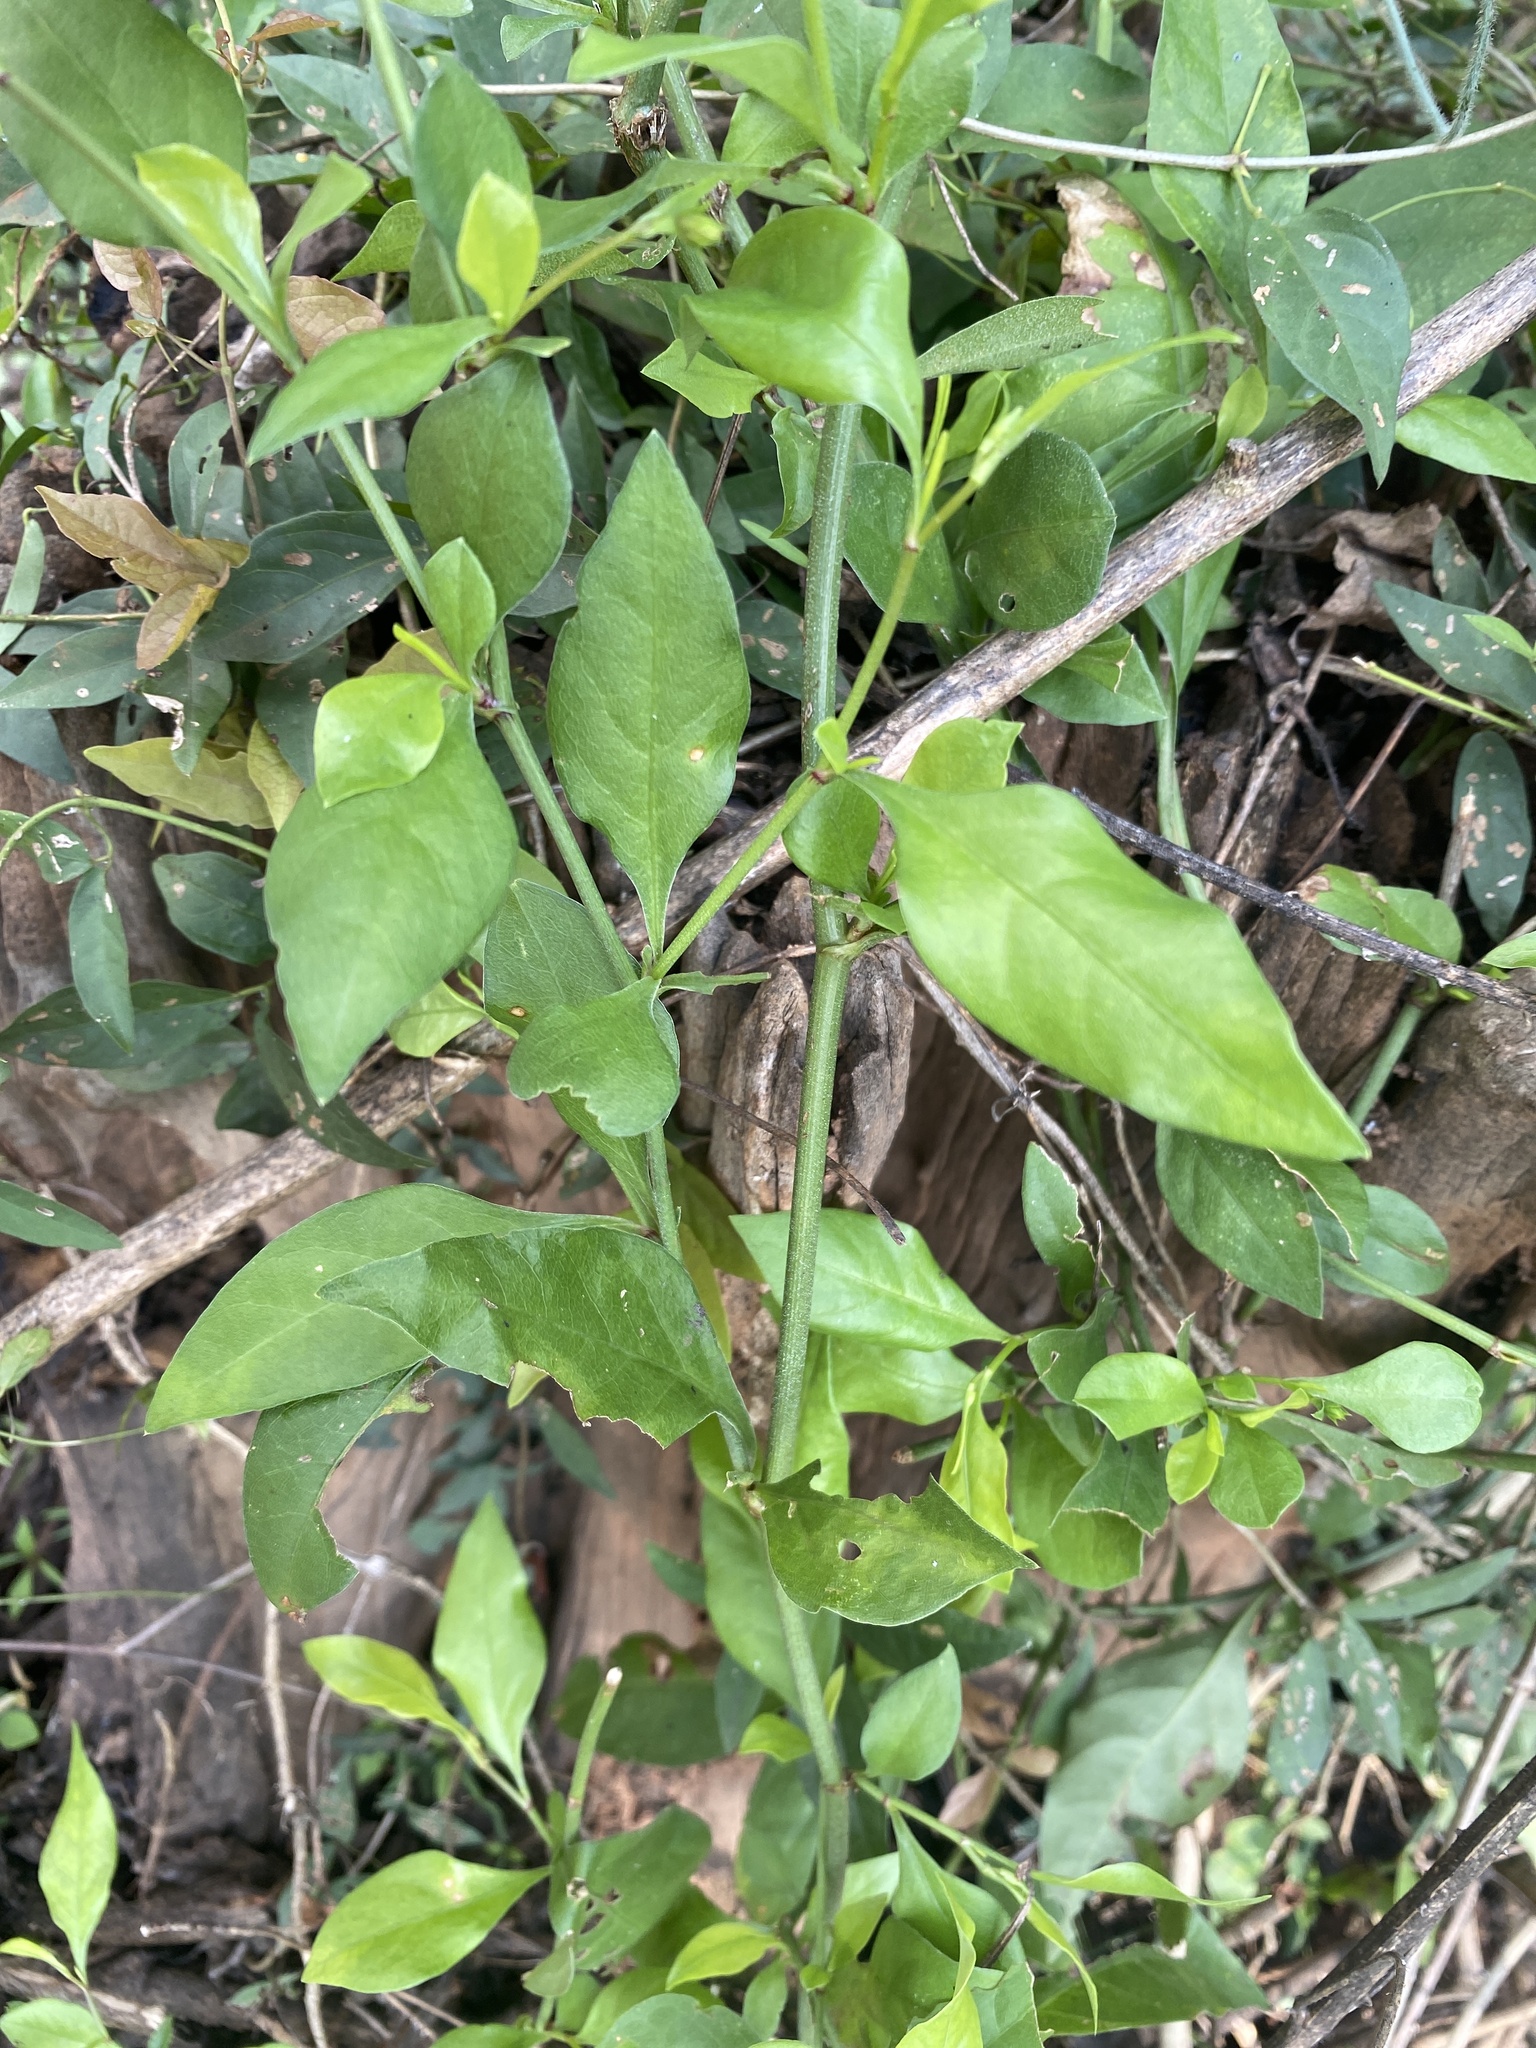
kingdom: Plantae
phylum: Tracheophyta
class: Magnoliopsida
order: Caryophyllales
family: Plumbaginaceae
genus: Plumbago
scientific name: Plumbago zeylanica
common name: Doctorbush
